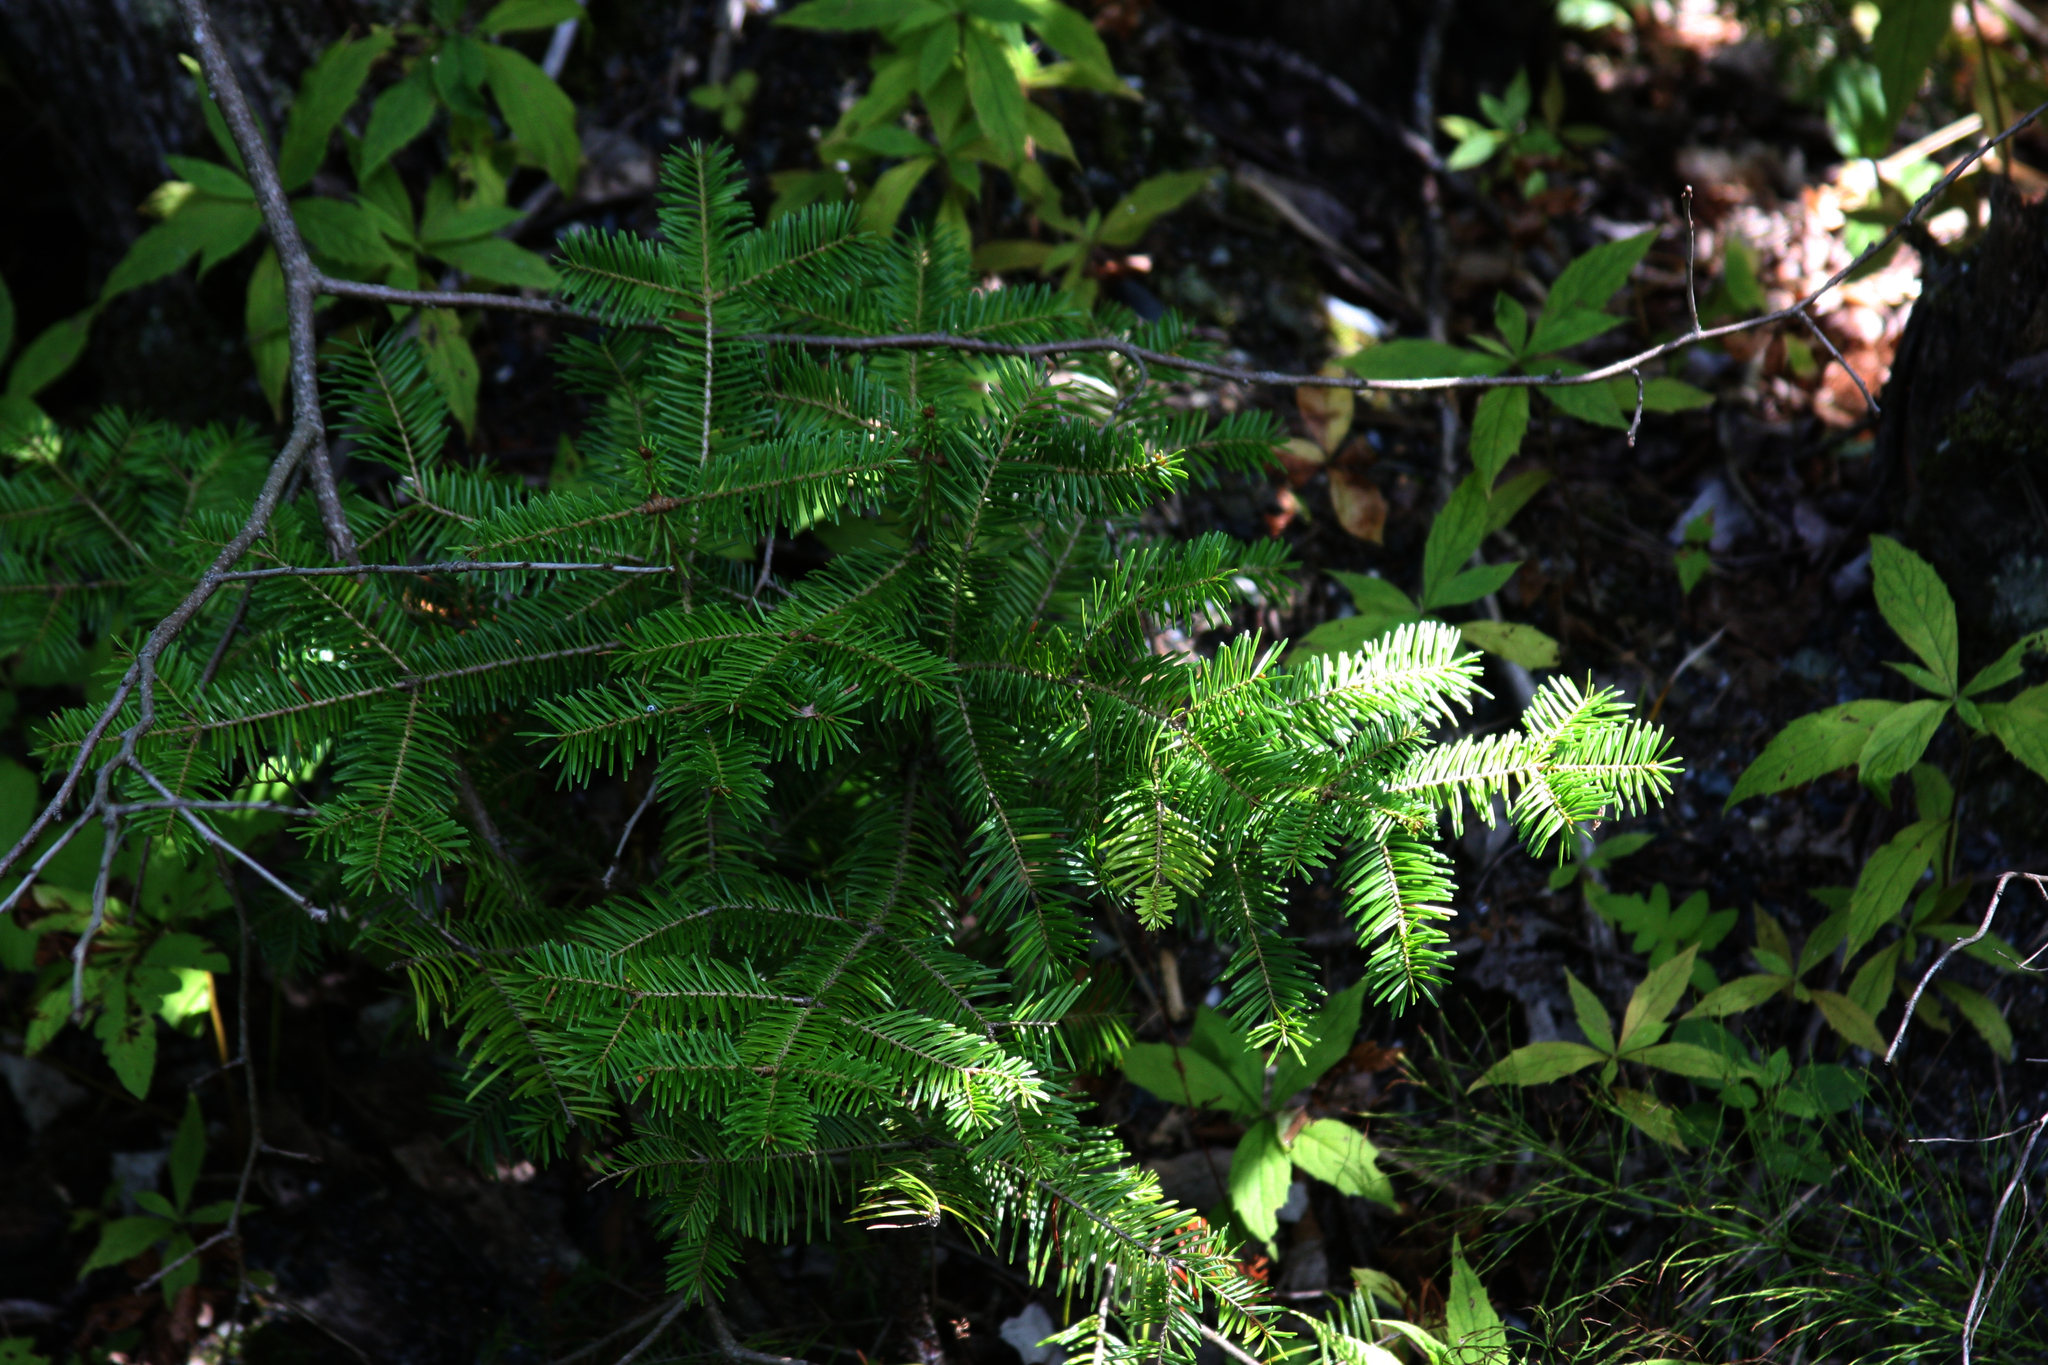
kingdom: Plantae
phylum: Tracheophyta
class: Pinopsida
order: Pinales
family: Pinaceae
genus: Abies
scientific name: Abies balsamea
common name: Balsam fir
